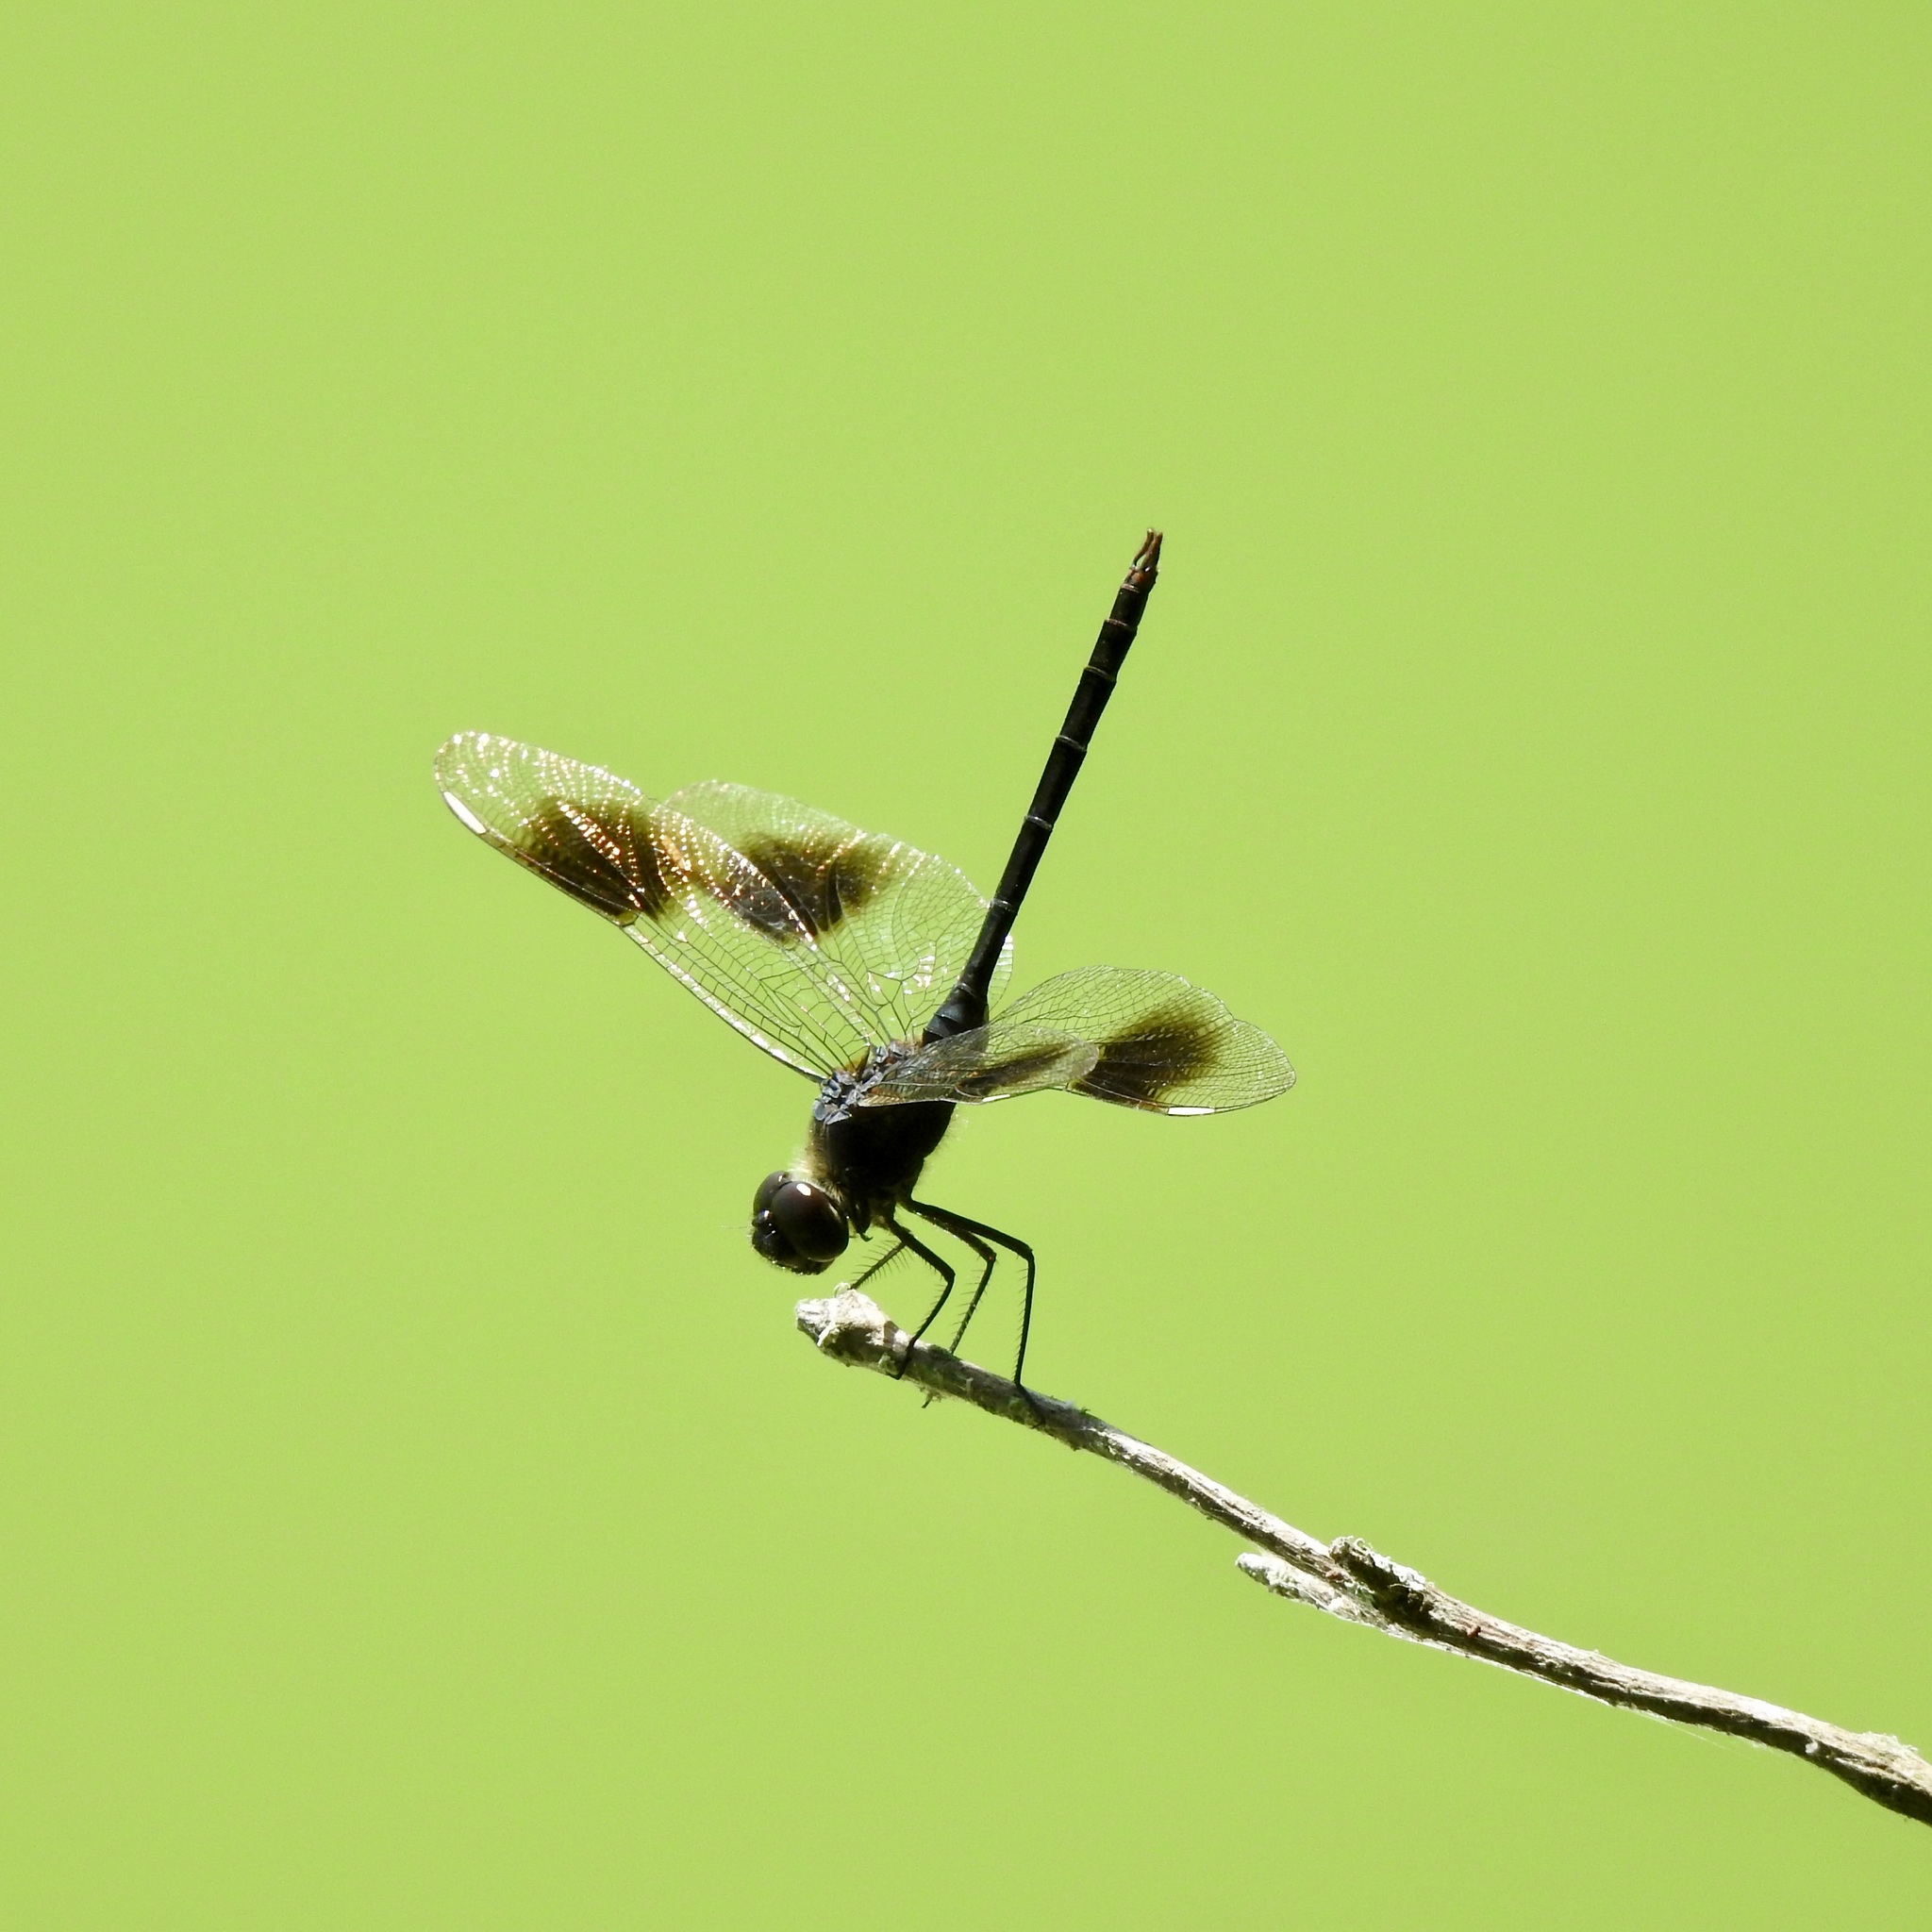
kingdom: Animalia
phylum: Arthropoda
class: Insecta
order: Odonata
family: Libellulidae
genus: Brachymesia
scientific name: Brachymesia gravida
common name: Four-spotted pennant
